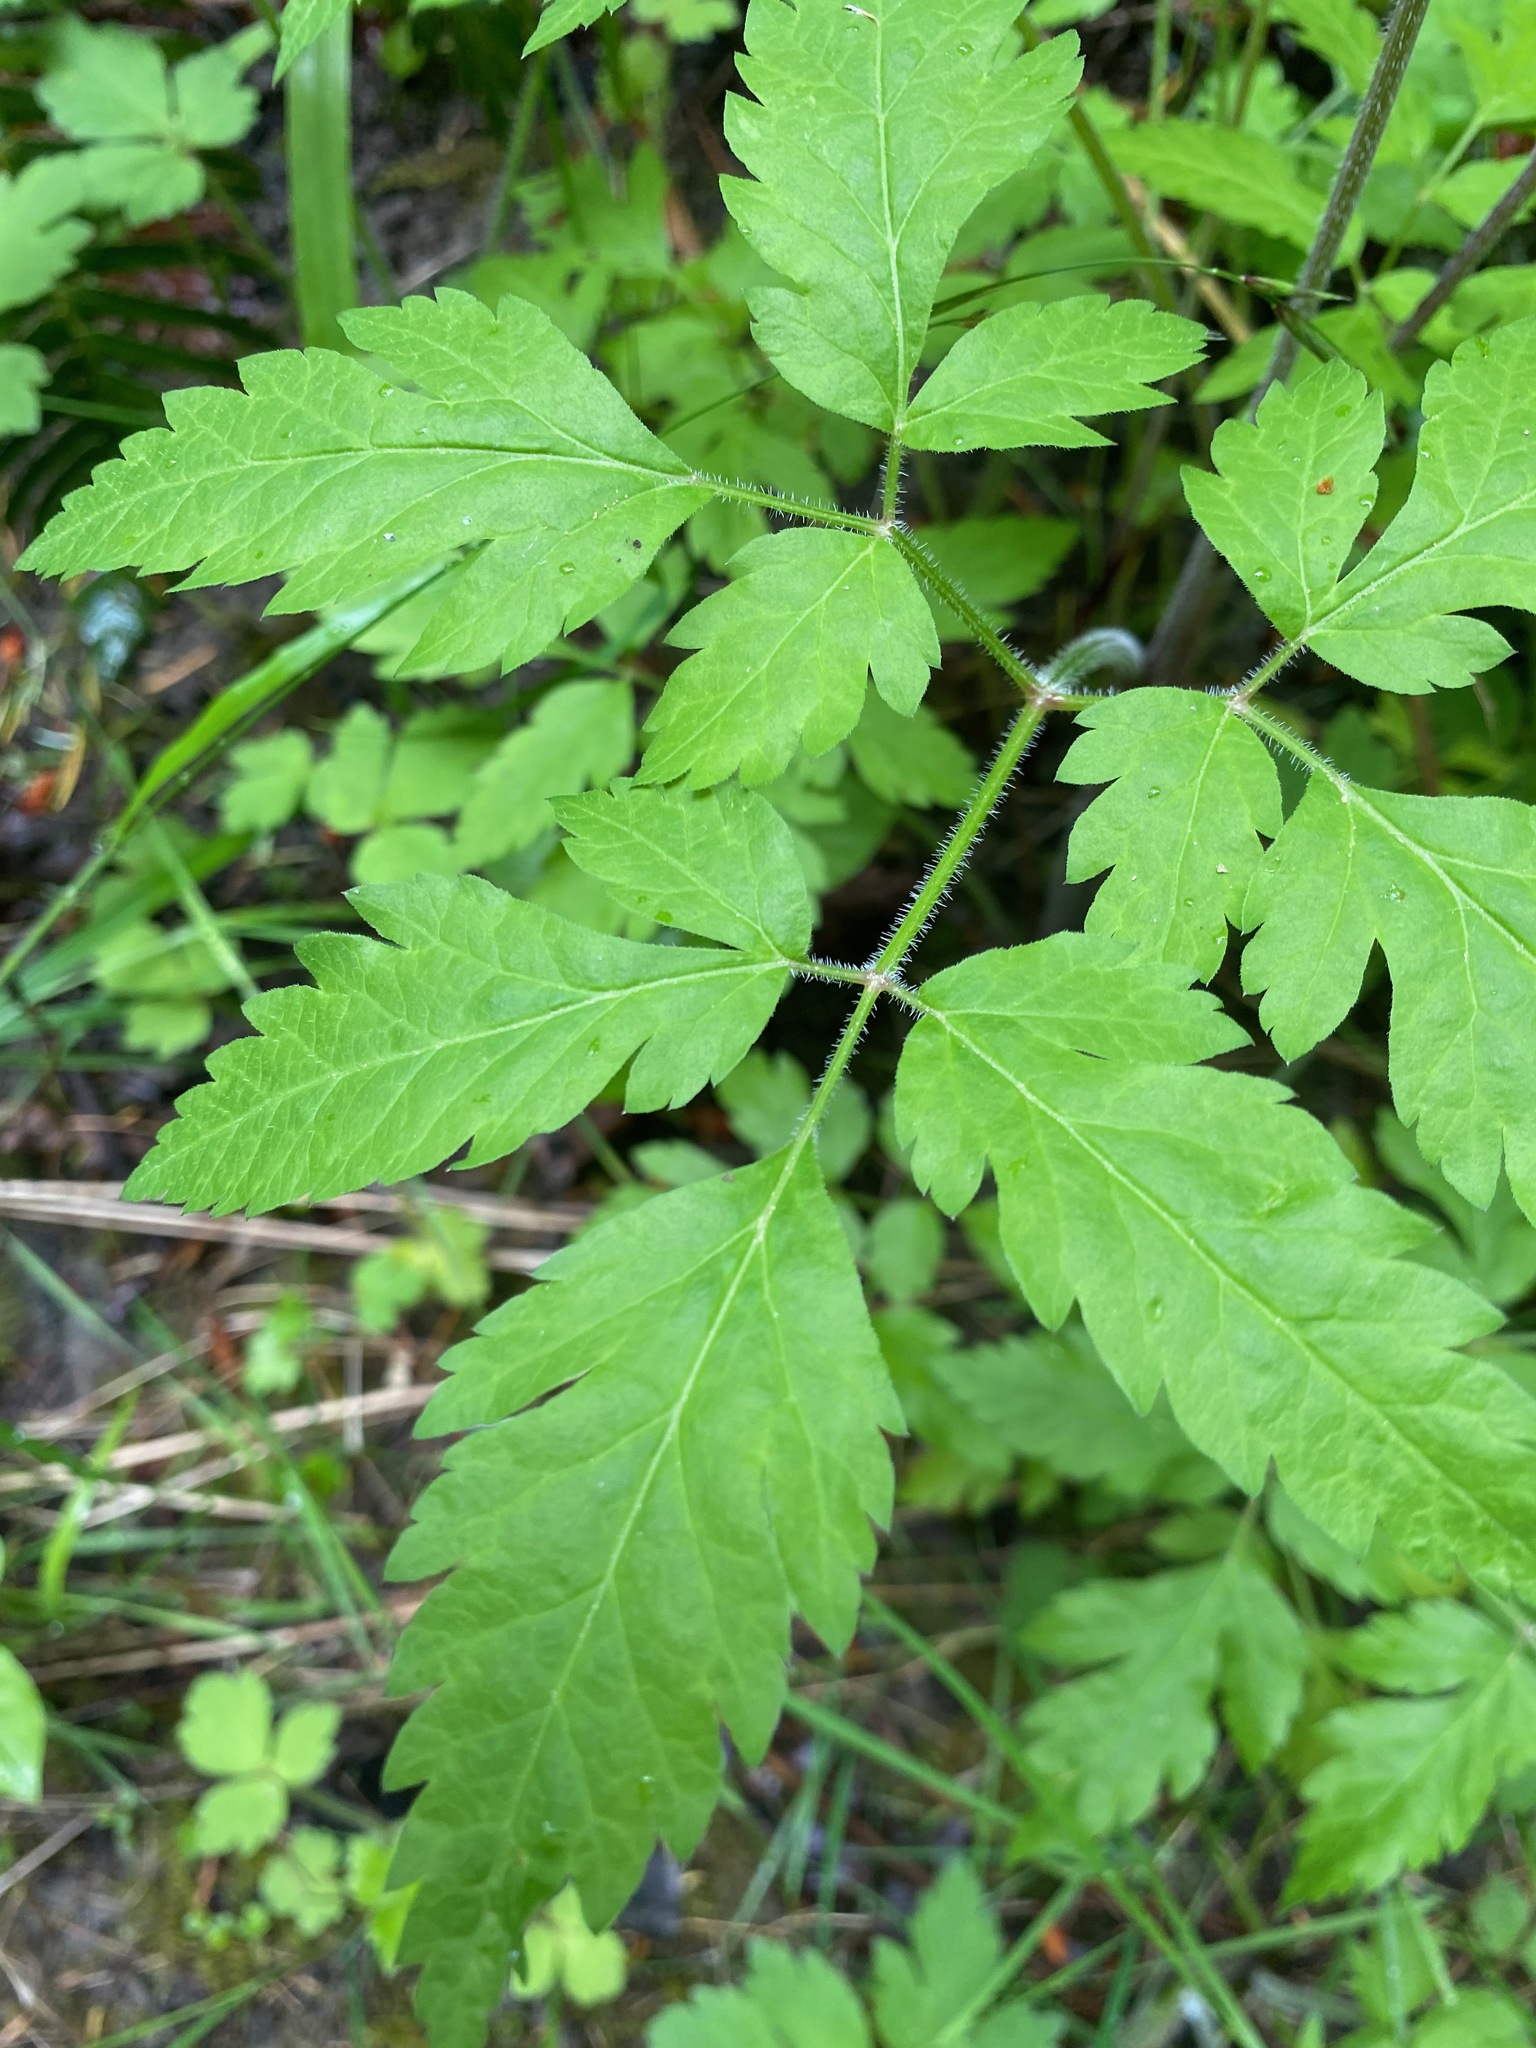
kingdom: Plantae
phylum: Tracheophyta
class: Magnoliopsida
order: Apiales
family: Apiaceae
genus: Osmorhiza
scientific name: Osmorhiza berteroi
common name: Mountain sweet cicely
